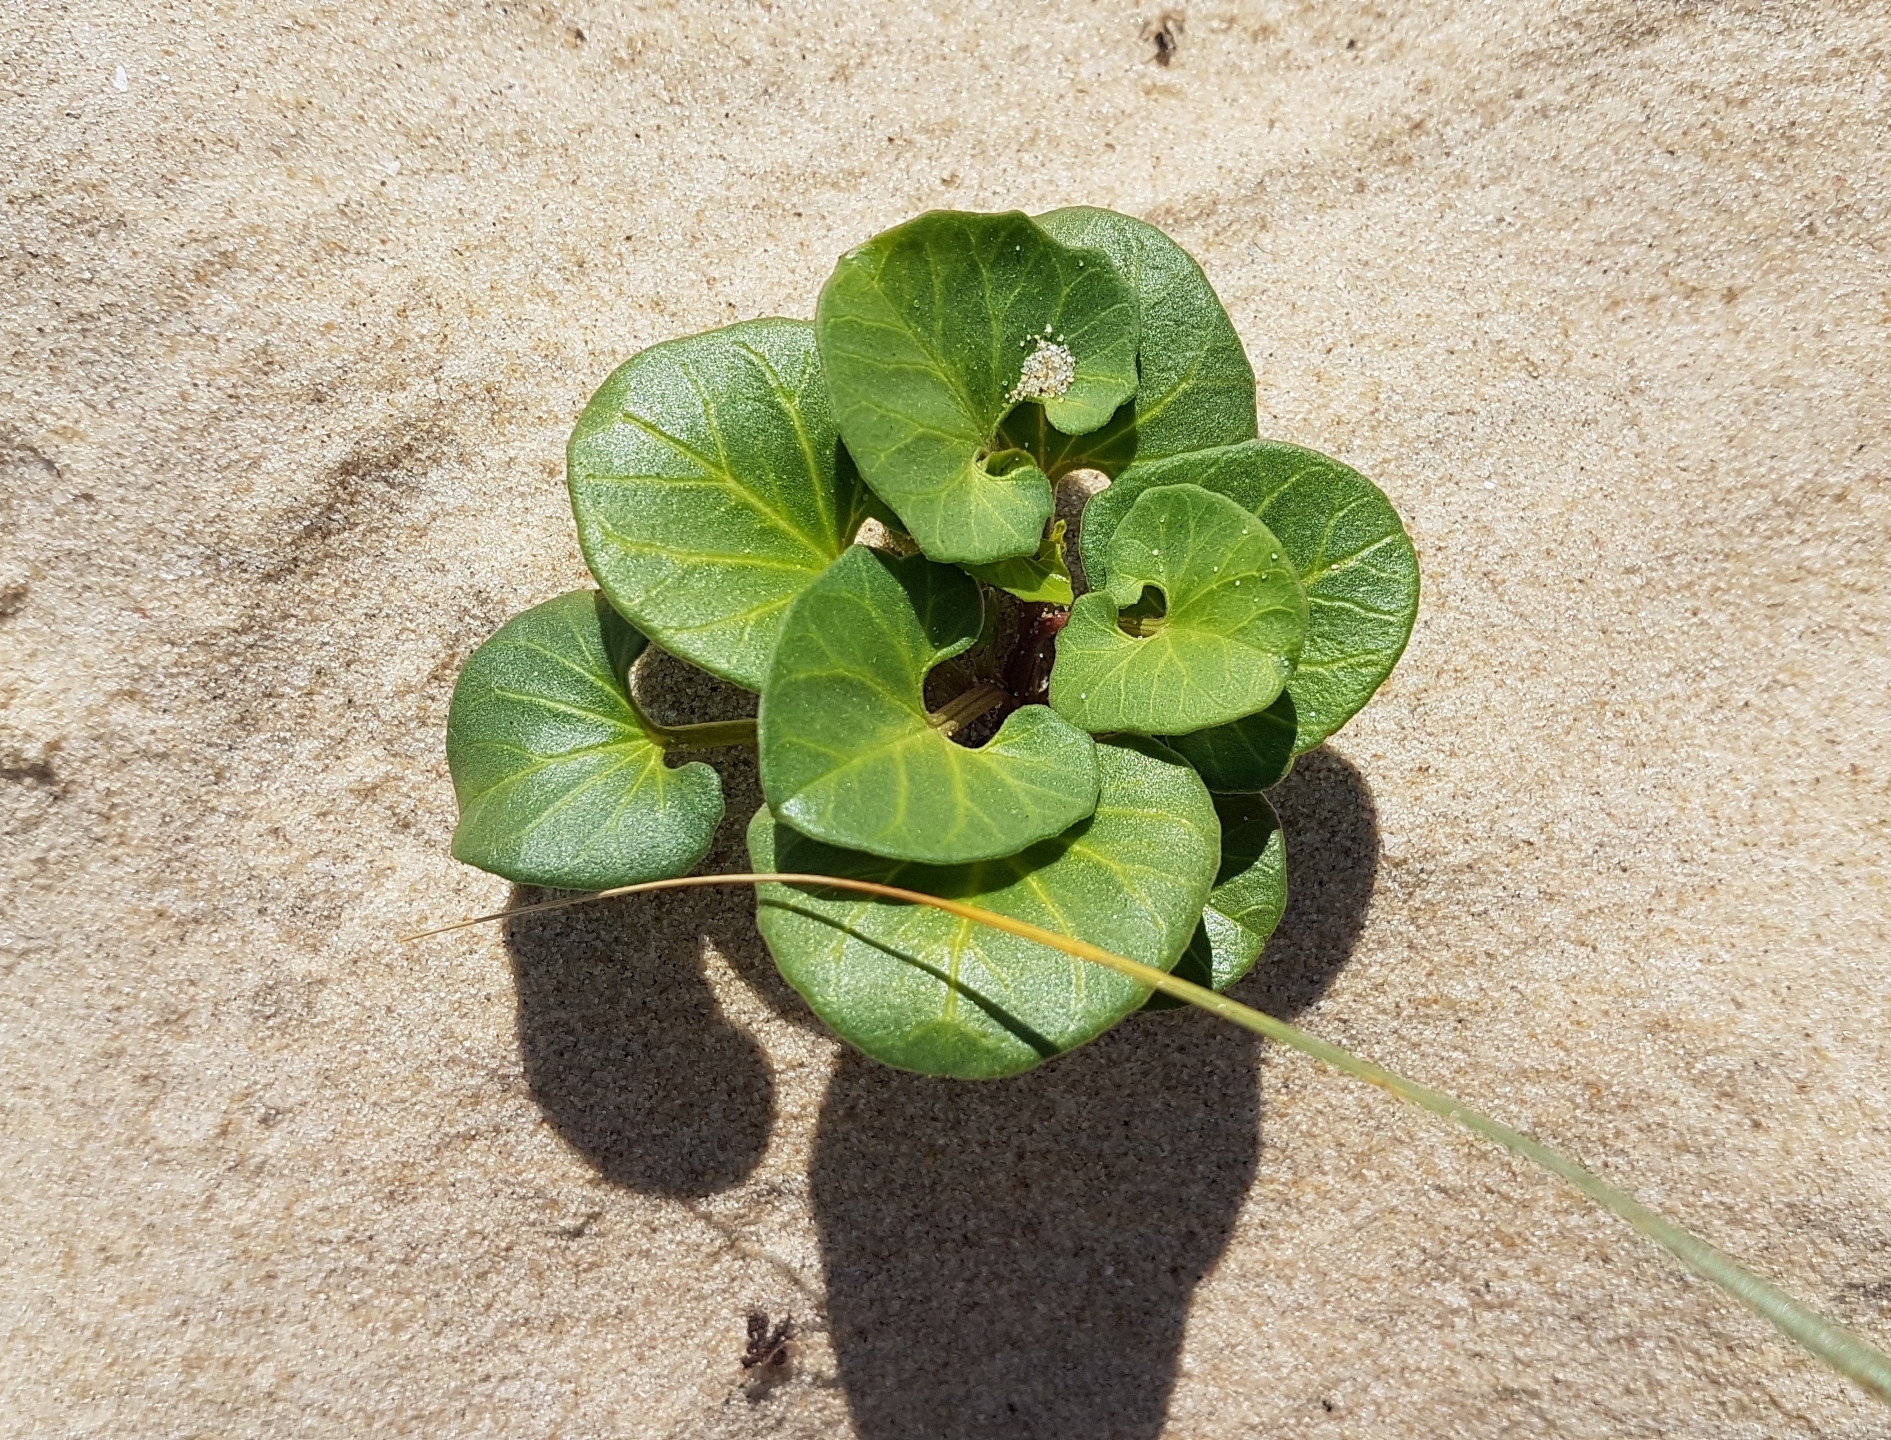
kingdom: Plantae
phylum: Tracheophyta
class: Magnoliopsida
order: Solanales
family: Convolvulaceae
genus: Calystegia
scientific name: Calystegia soldanella
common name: Sea bindweed
